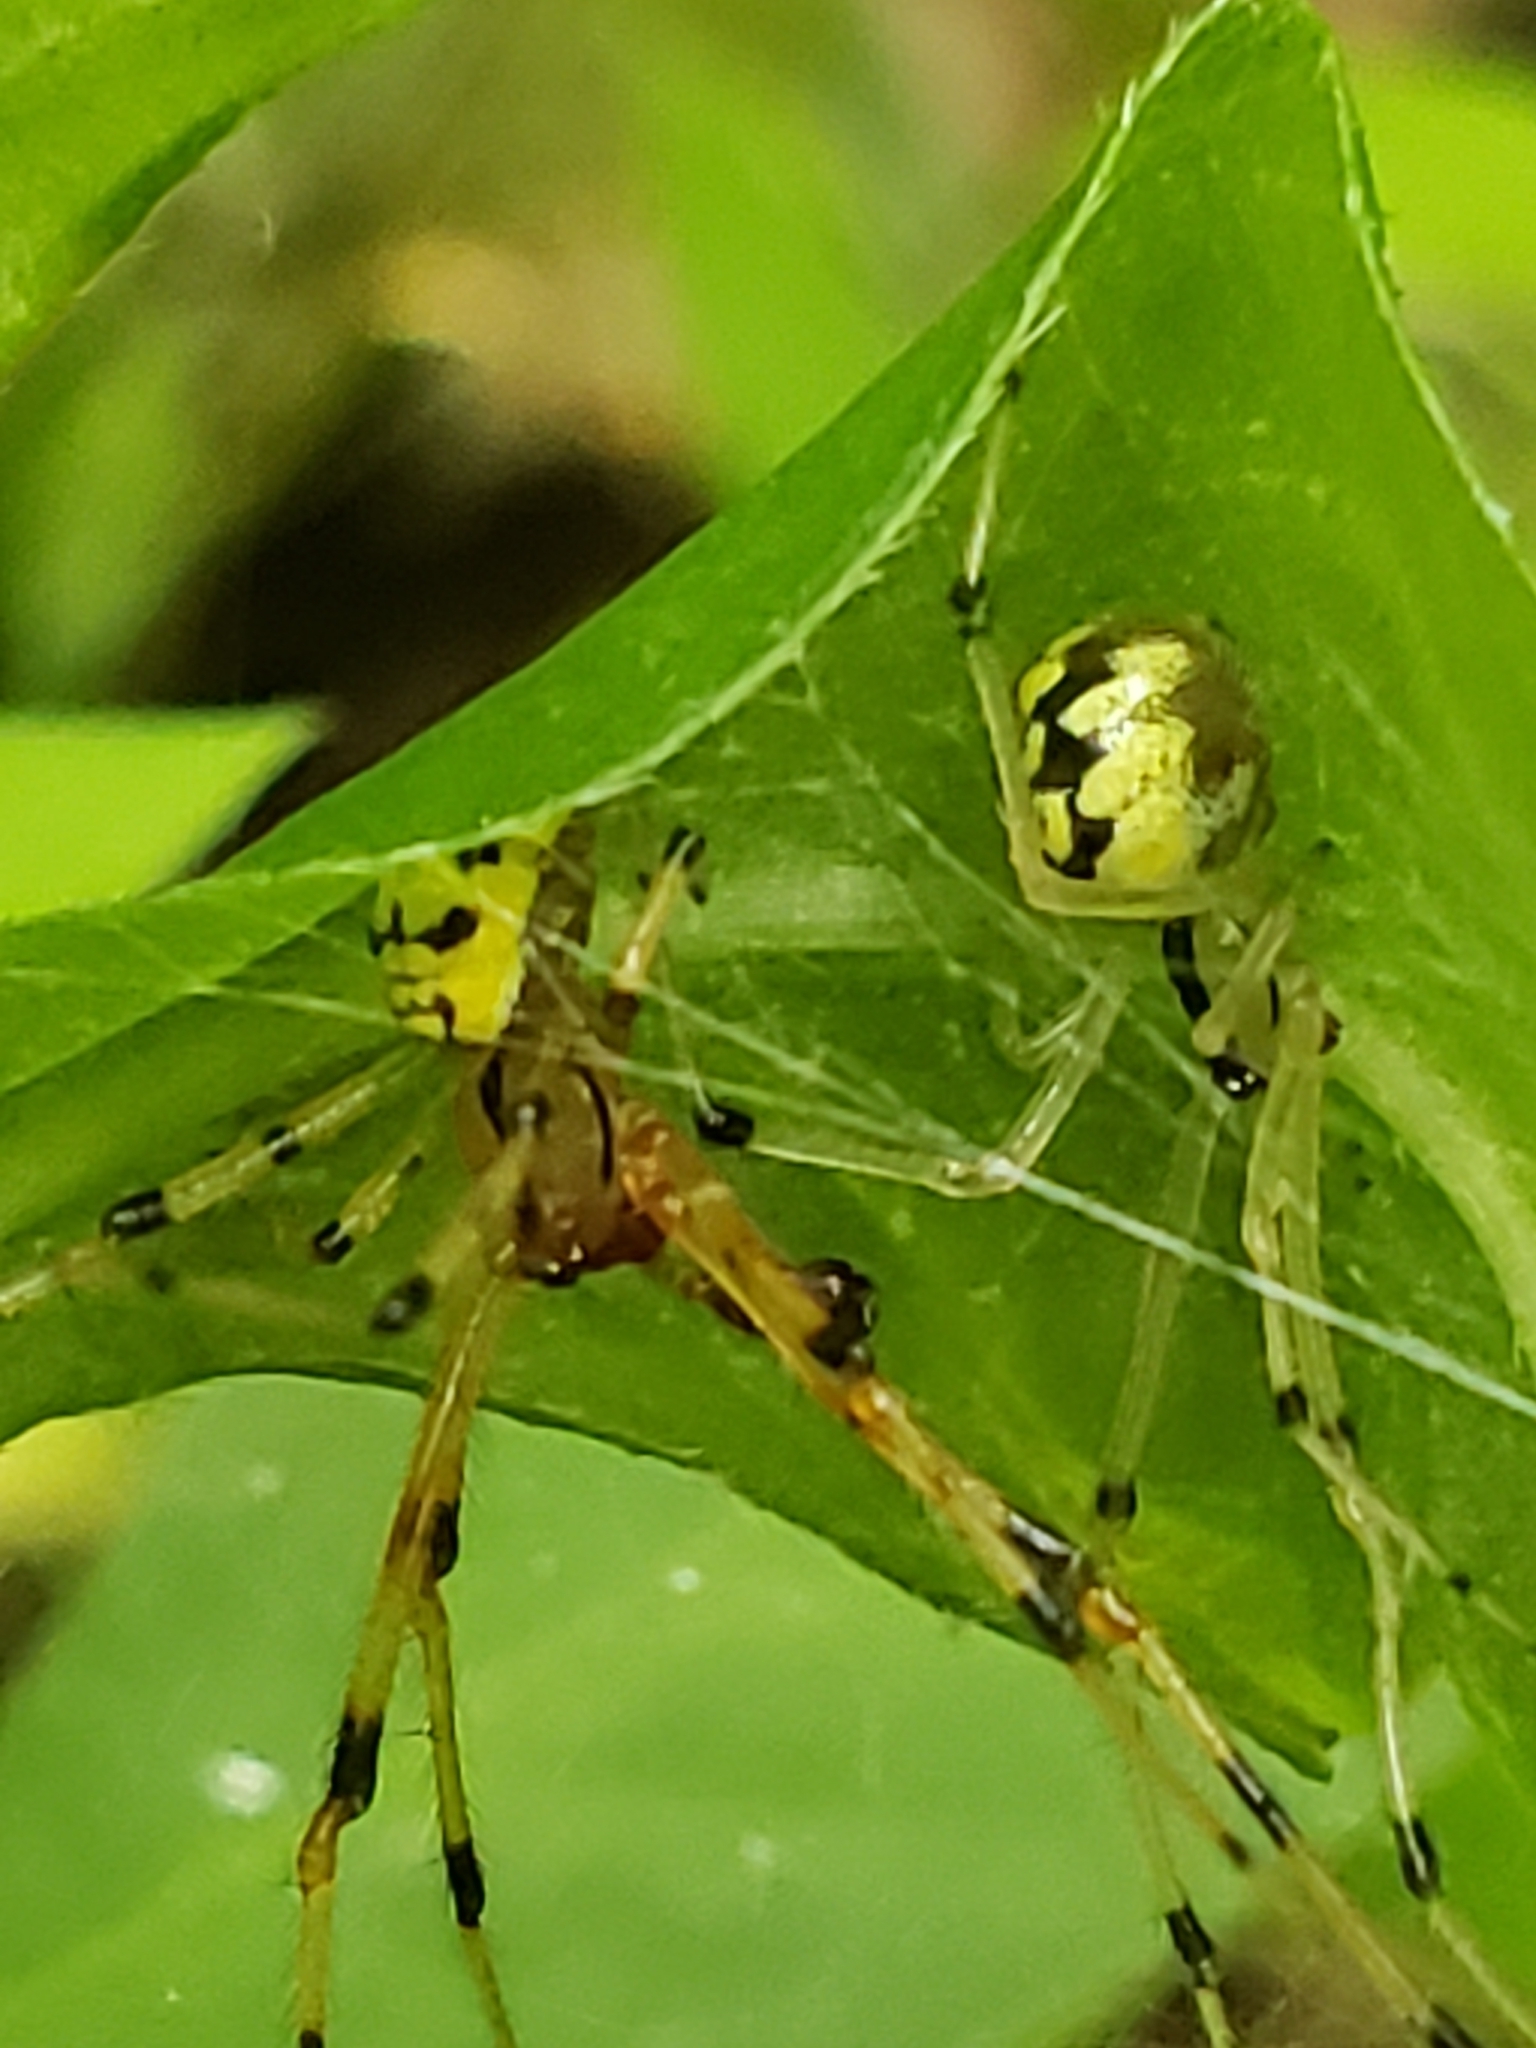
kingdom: Animalia
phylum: Arthropoda
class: Arachnida
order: Araneae
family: Theridiidae
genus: Phylloneta
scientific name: Phylloneta pictipes
